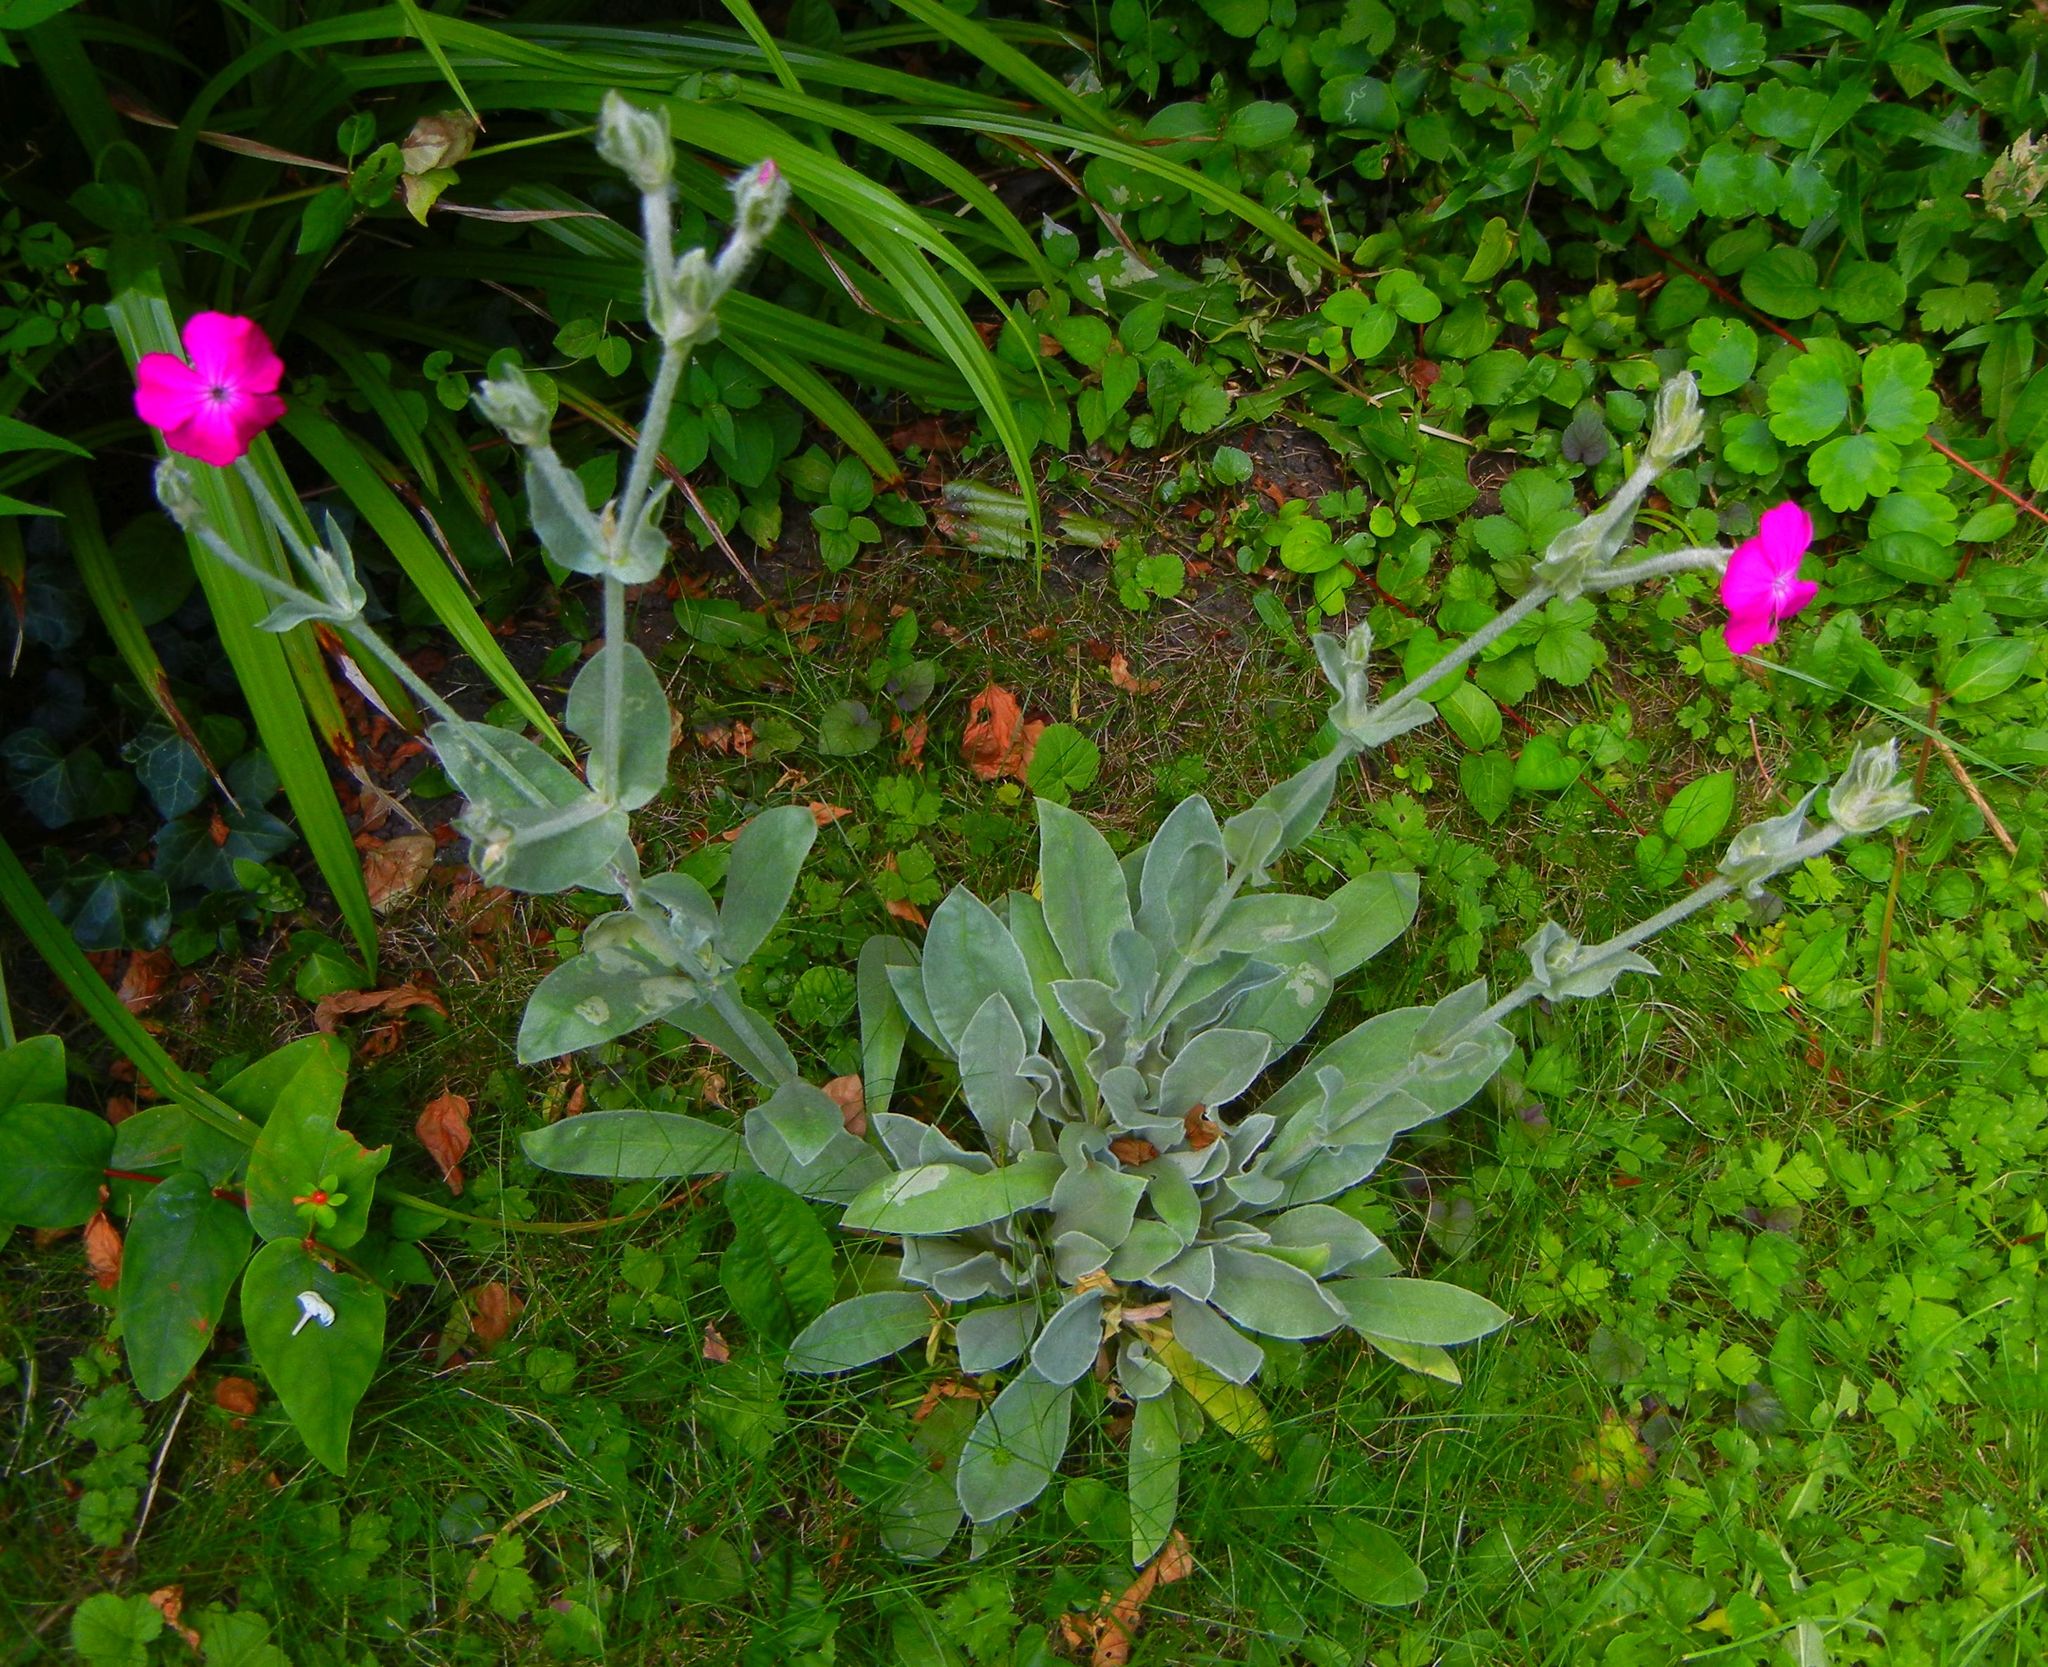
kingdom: Plantae
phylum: Tracheophyta
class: Magnoliopsida
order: Caryophyllales
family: Caryophyllaceae
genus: Silene
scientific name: Silene coronaria
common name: Rose campion
